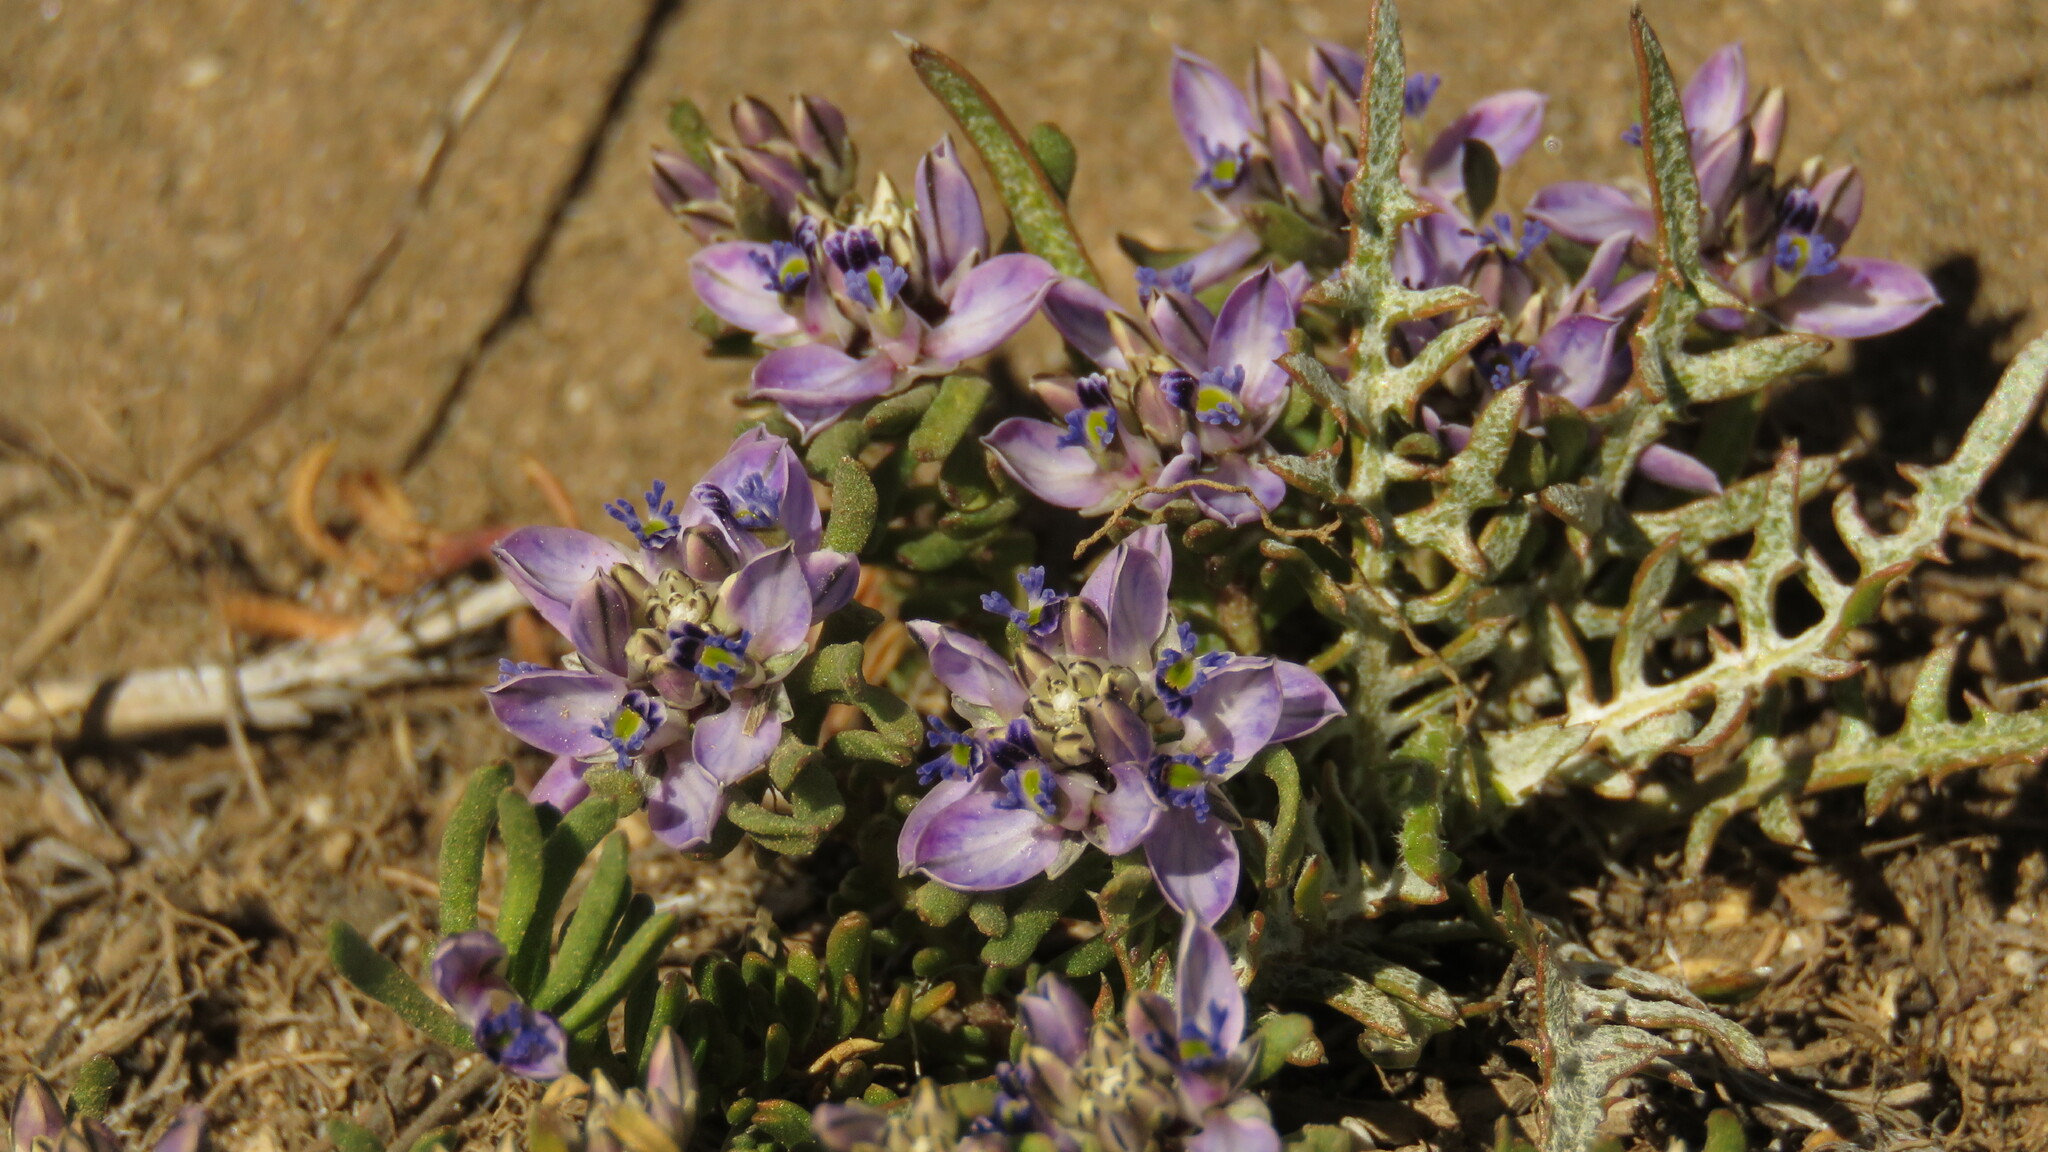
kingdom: Plantae
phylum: Tracheophyta
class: Magnoliopsida
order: Fabales
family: Polygalaceae
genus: Polygala
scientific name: Polygala salasiana
